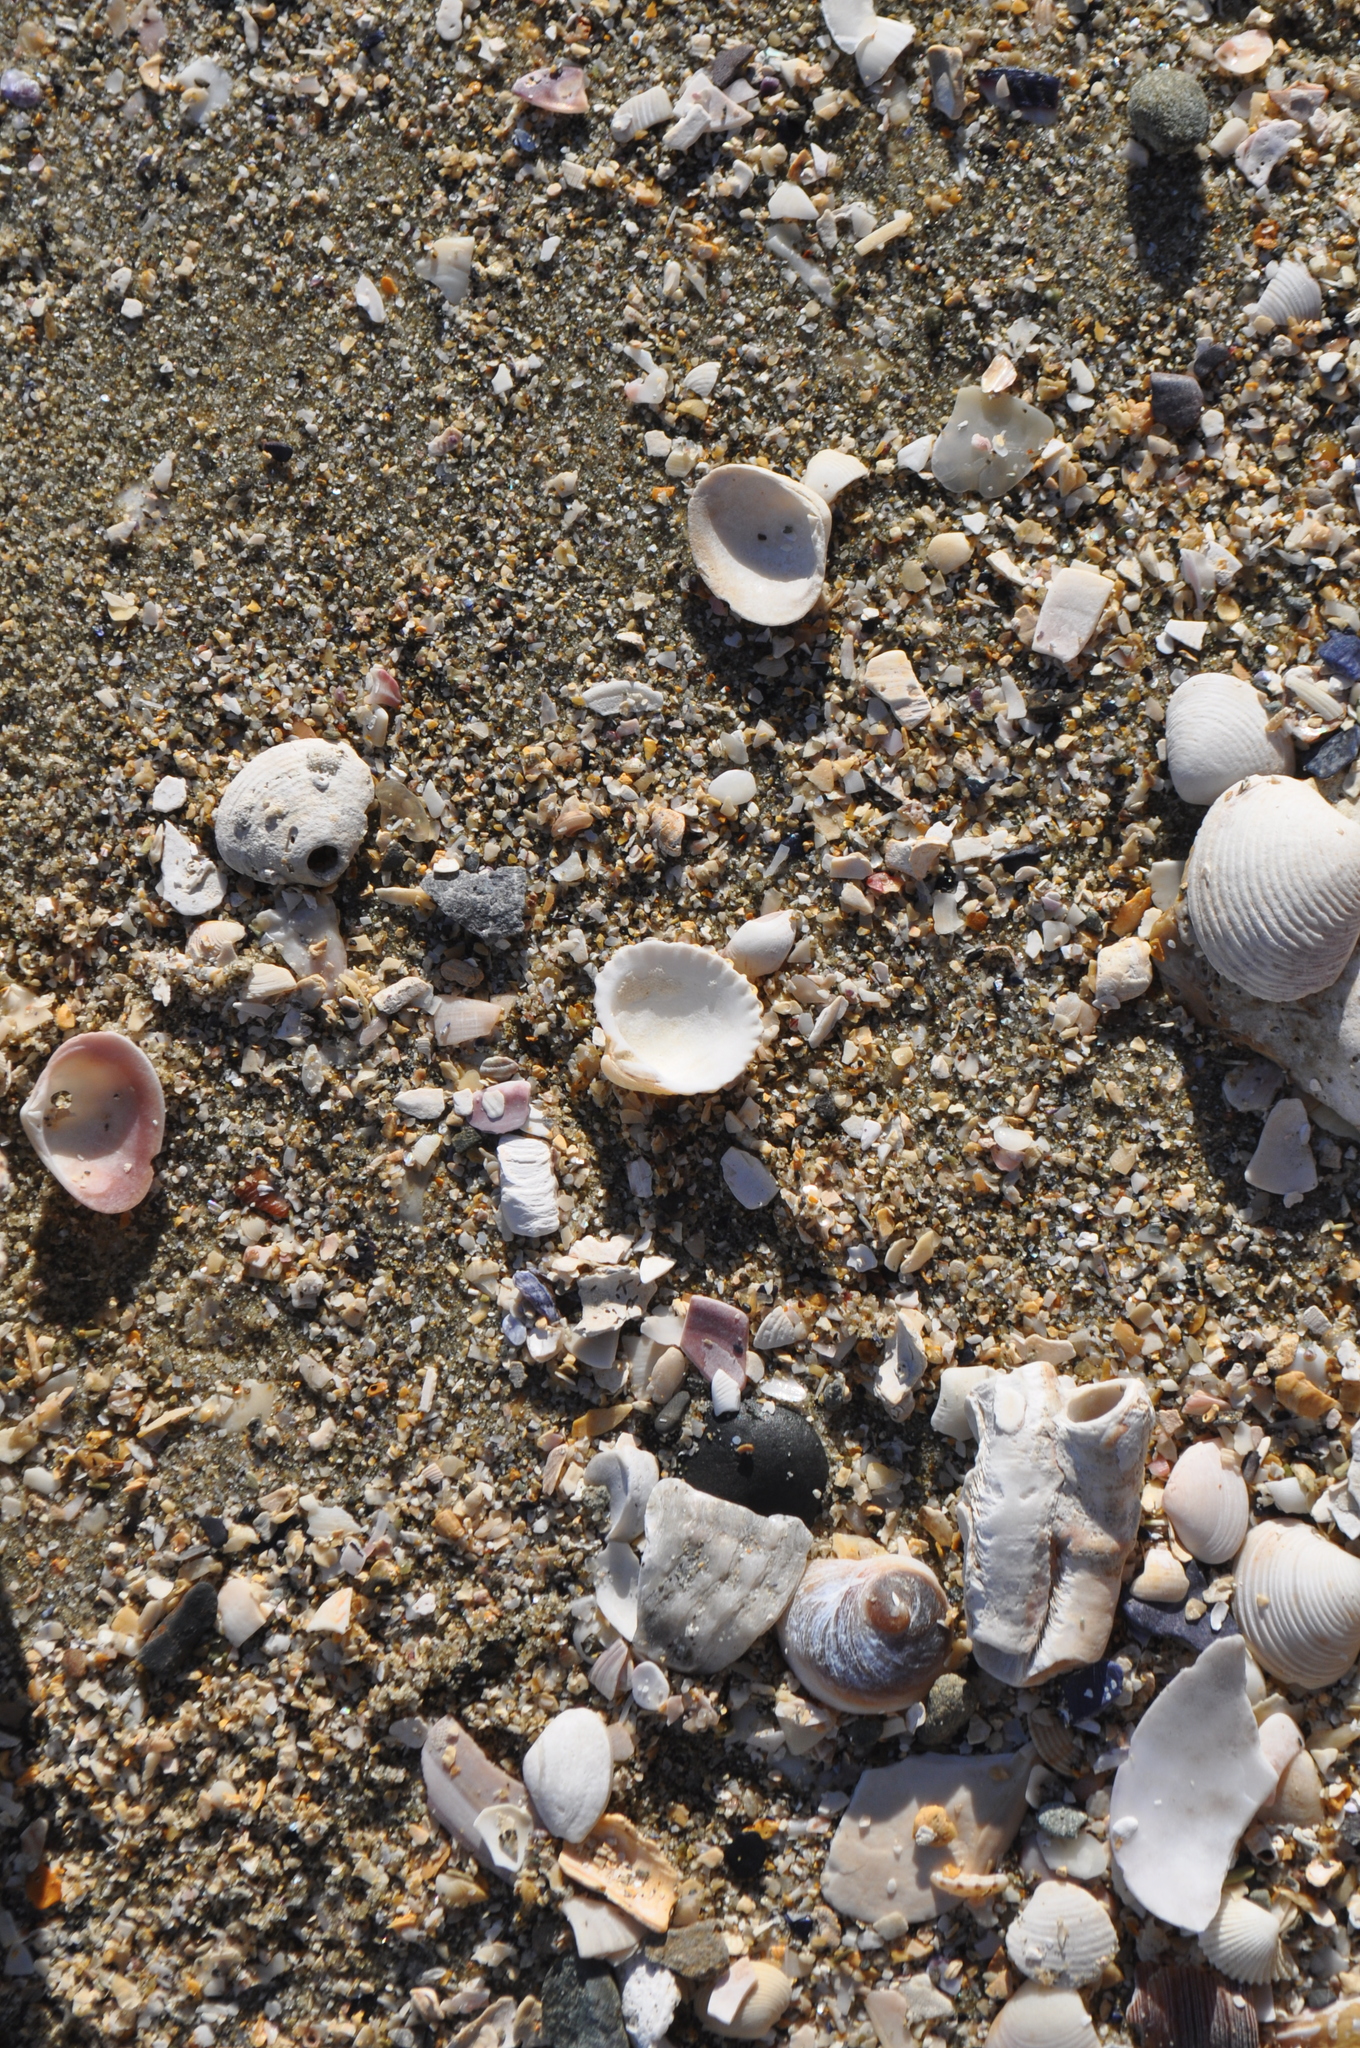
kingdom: Animalia
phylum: Mollusca
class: Bivalvia
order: Carditida
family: Carditidae
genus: Purpurocardia
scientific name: Purpurocardia purpurata
